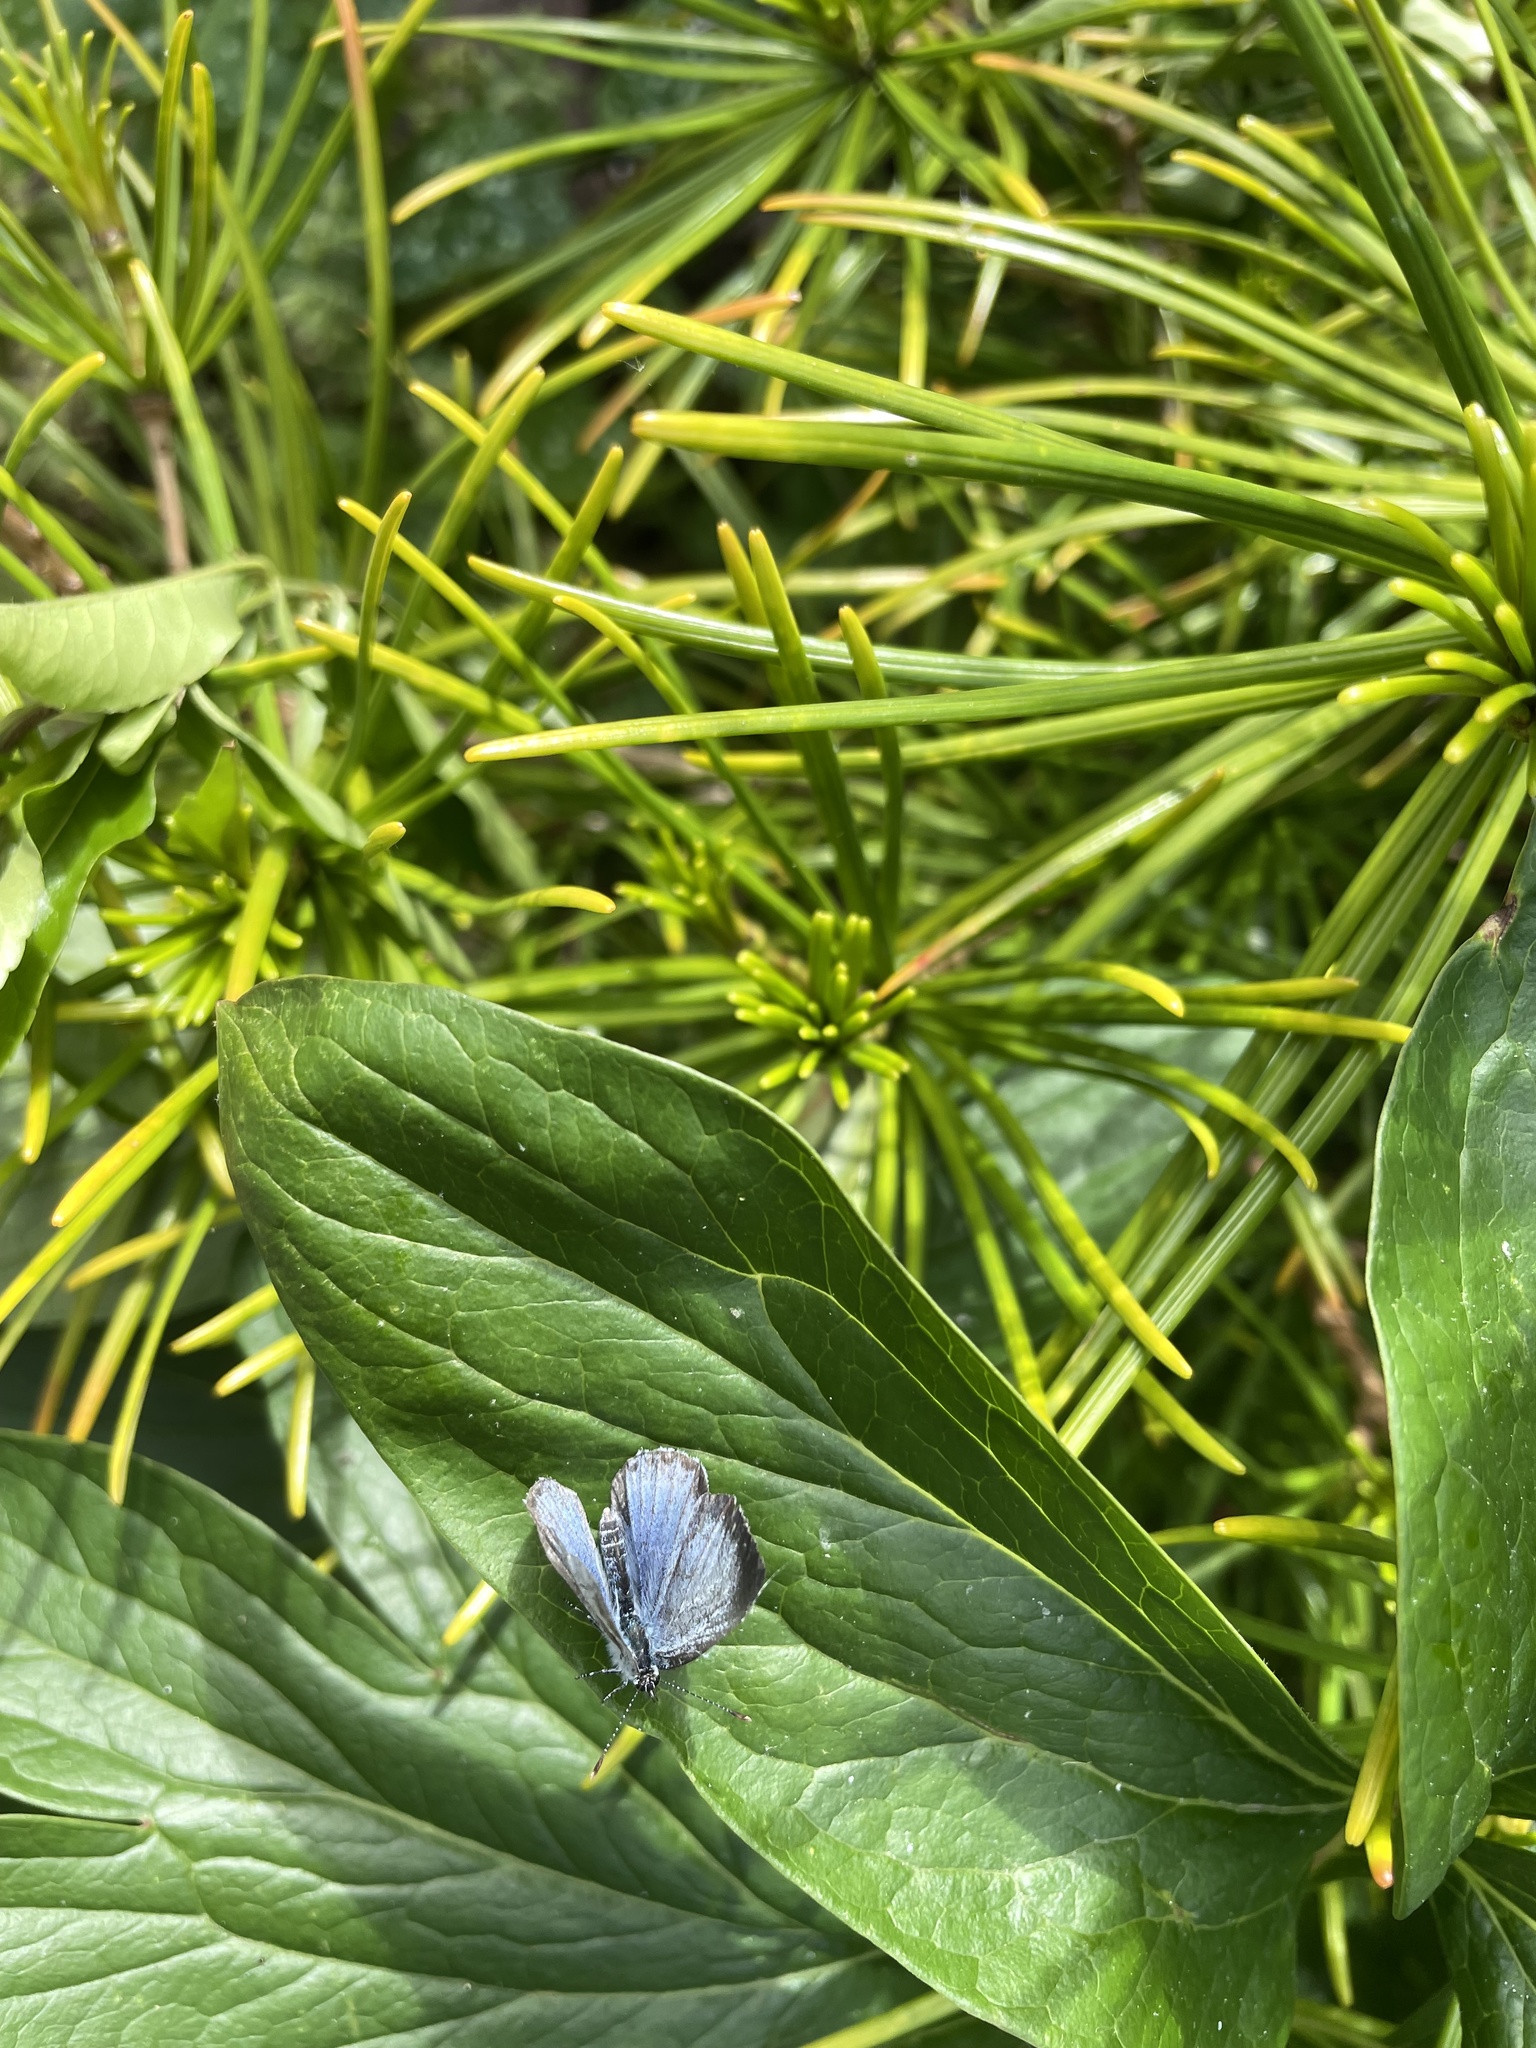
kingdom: Animalia
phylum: Arthropoda
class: Insecta
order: Lepidoptera
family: Lycaenidae
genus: Celastrina
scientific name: Celastrina argiolus
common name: Holly blue
